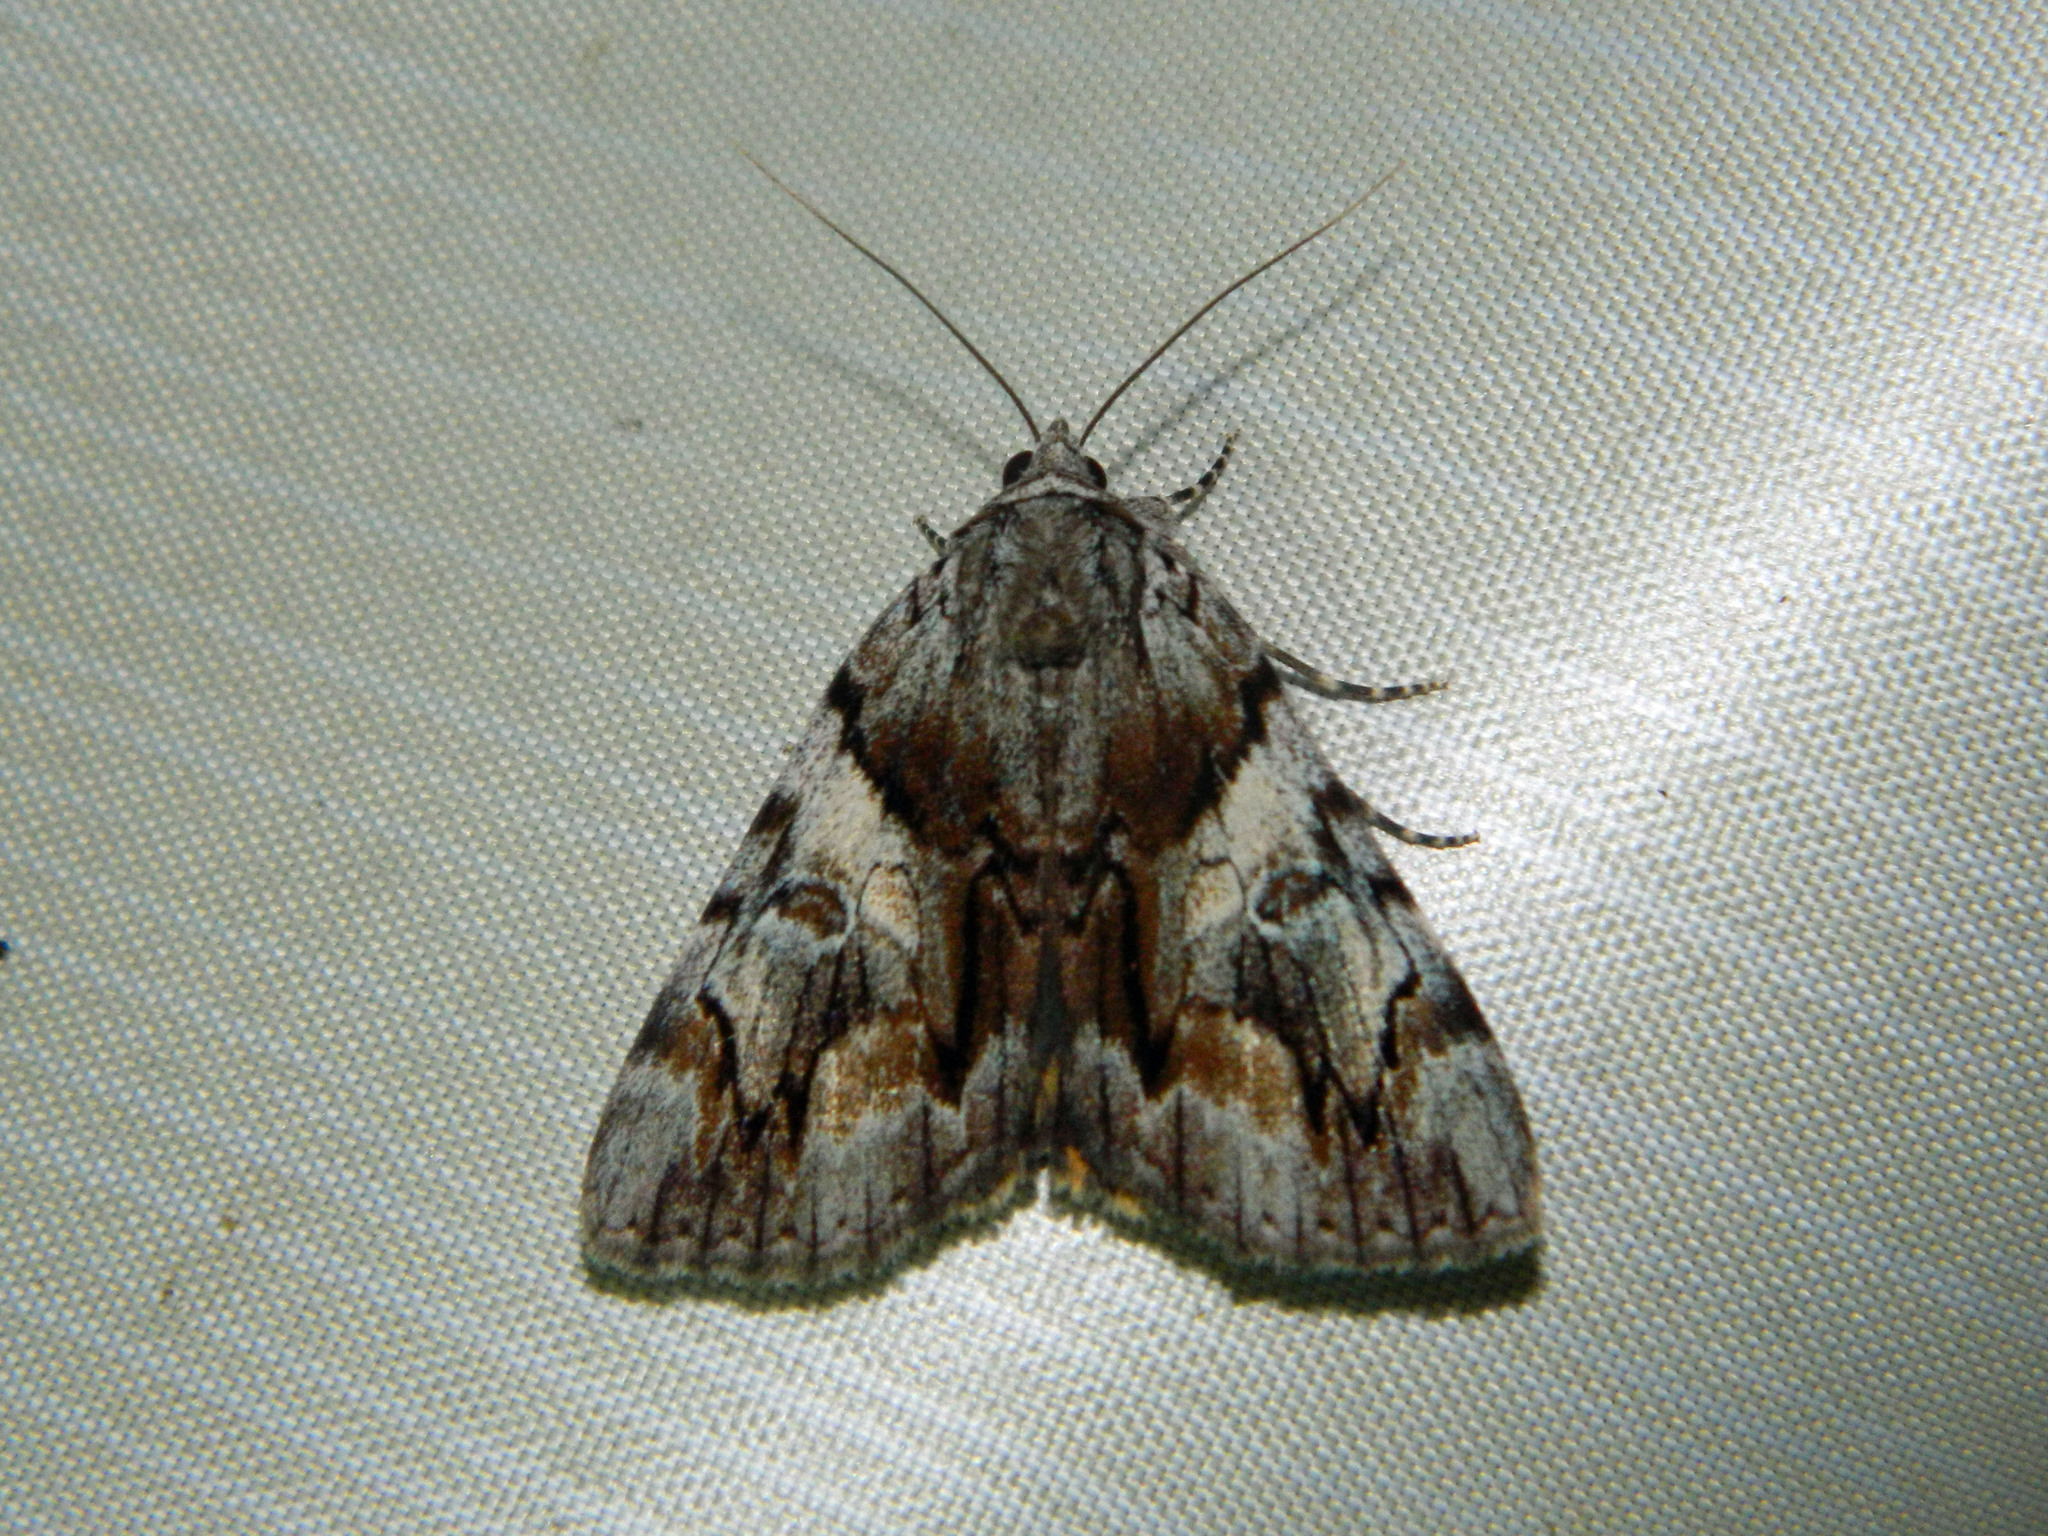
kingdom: Animalia
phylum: Arthropoda
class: Insecta
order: Lepidoptera
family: Erebidae
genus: Catocala
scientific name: Catocala blandula
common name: Charming underwing
